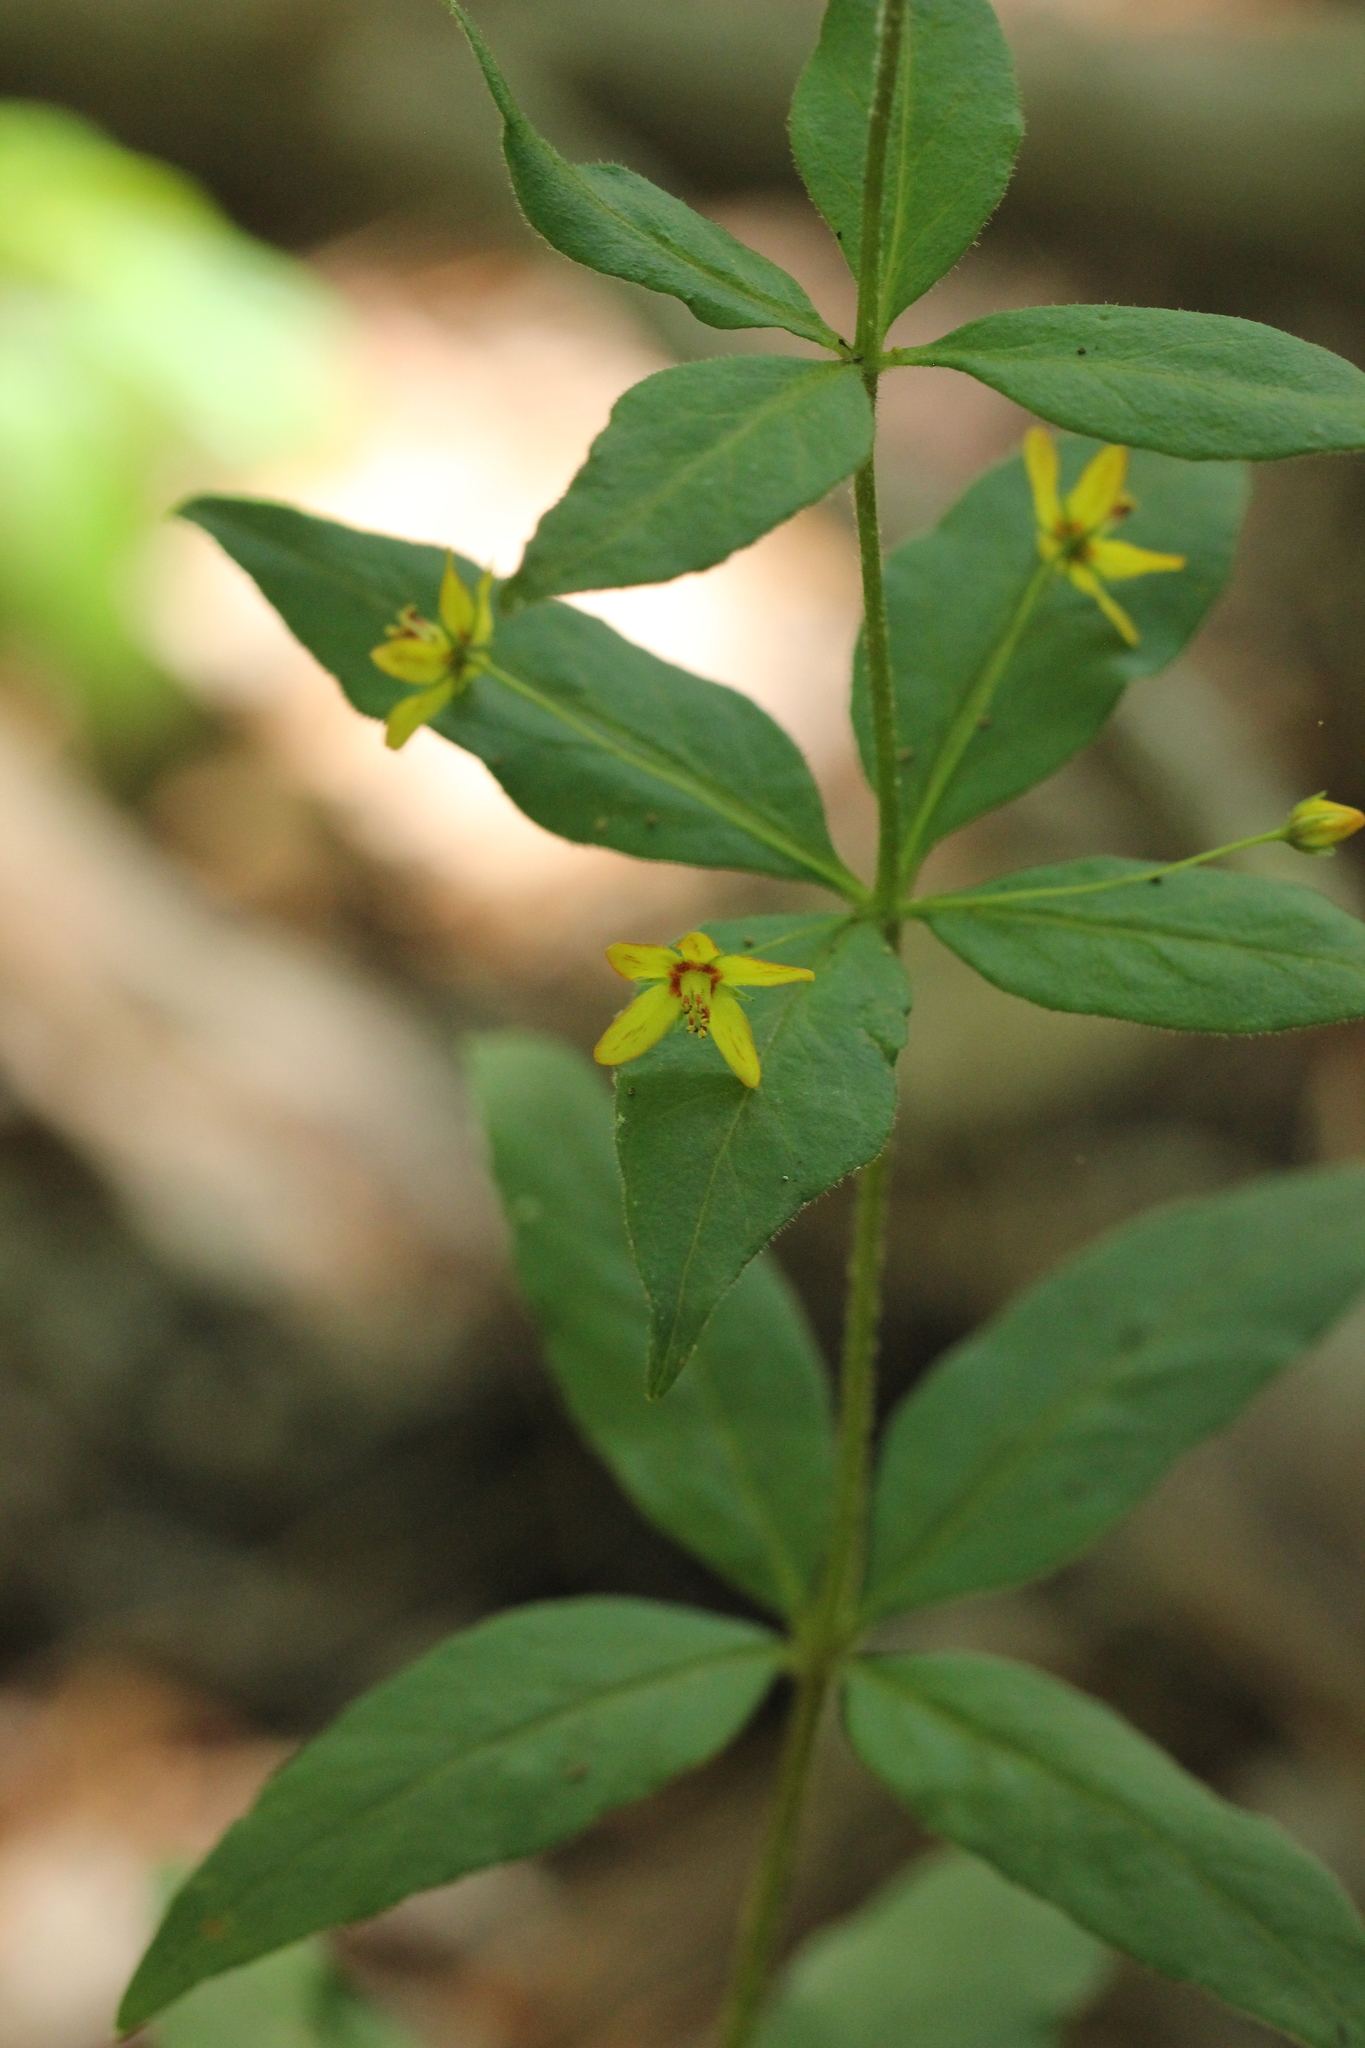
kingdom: Plantae
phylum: Tracheophyta
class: Magnoliopsida
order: Ericales
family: Primulaceae
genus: Lysimachia
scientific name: Lysimachia quadrifolia
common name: Whorled loosestrife
